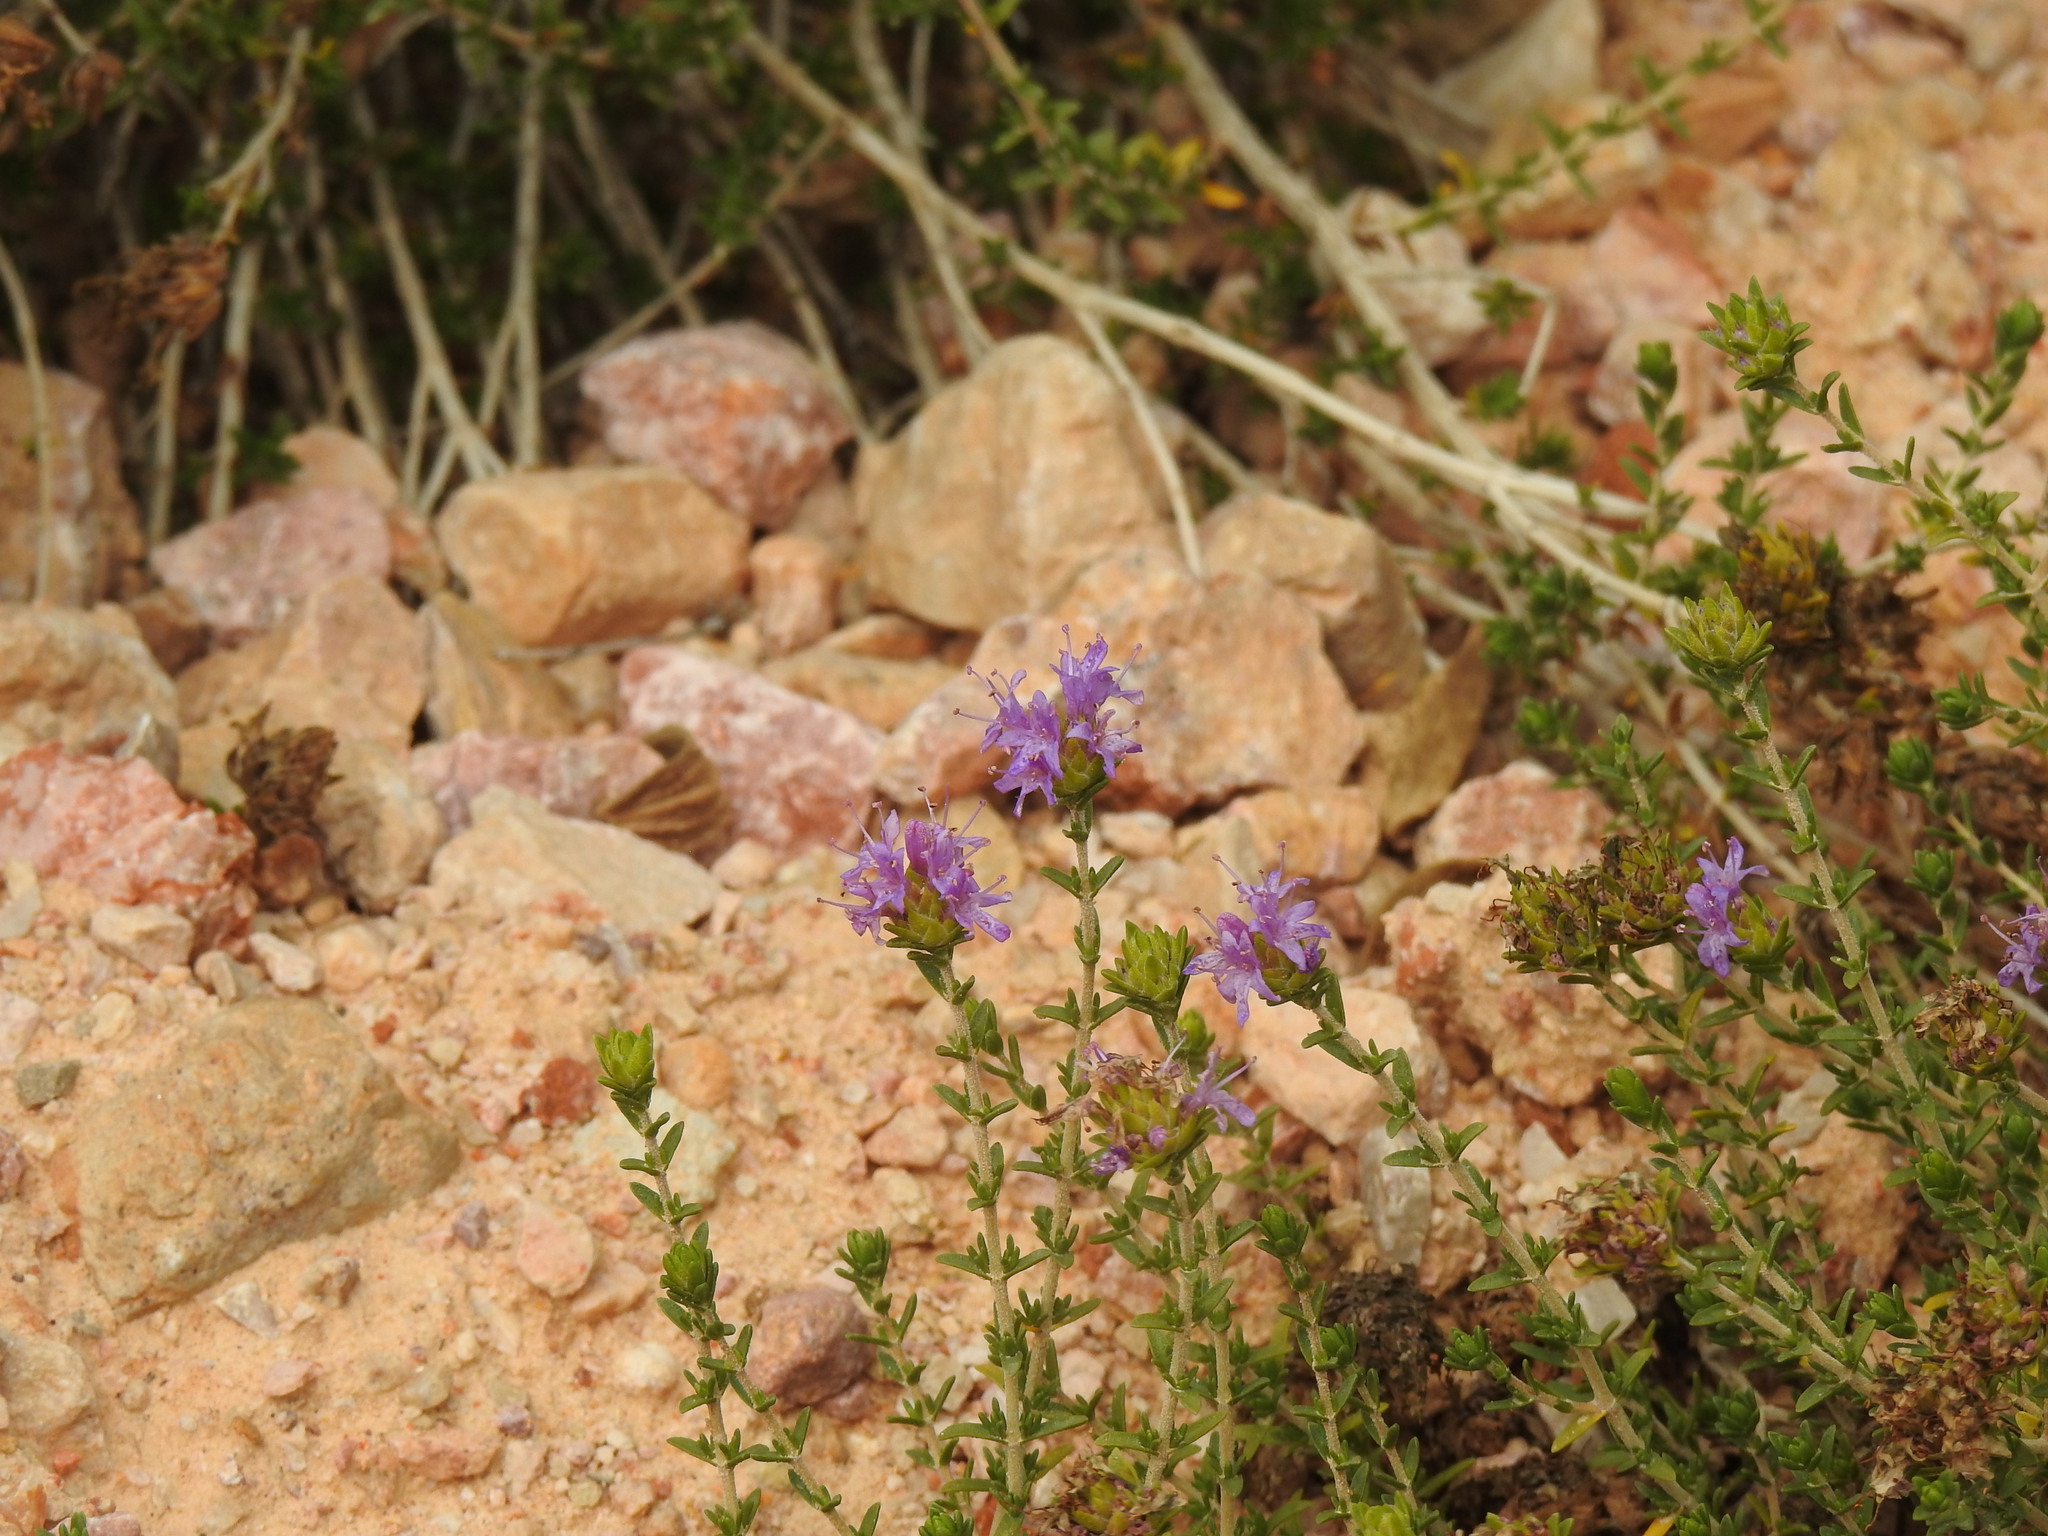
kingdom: Plantae
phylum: Tracheophyta
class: Magnoliopsida
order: Lamiales
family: Lamiaceae
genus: Thymbra
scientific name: Thymbra capitata
